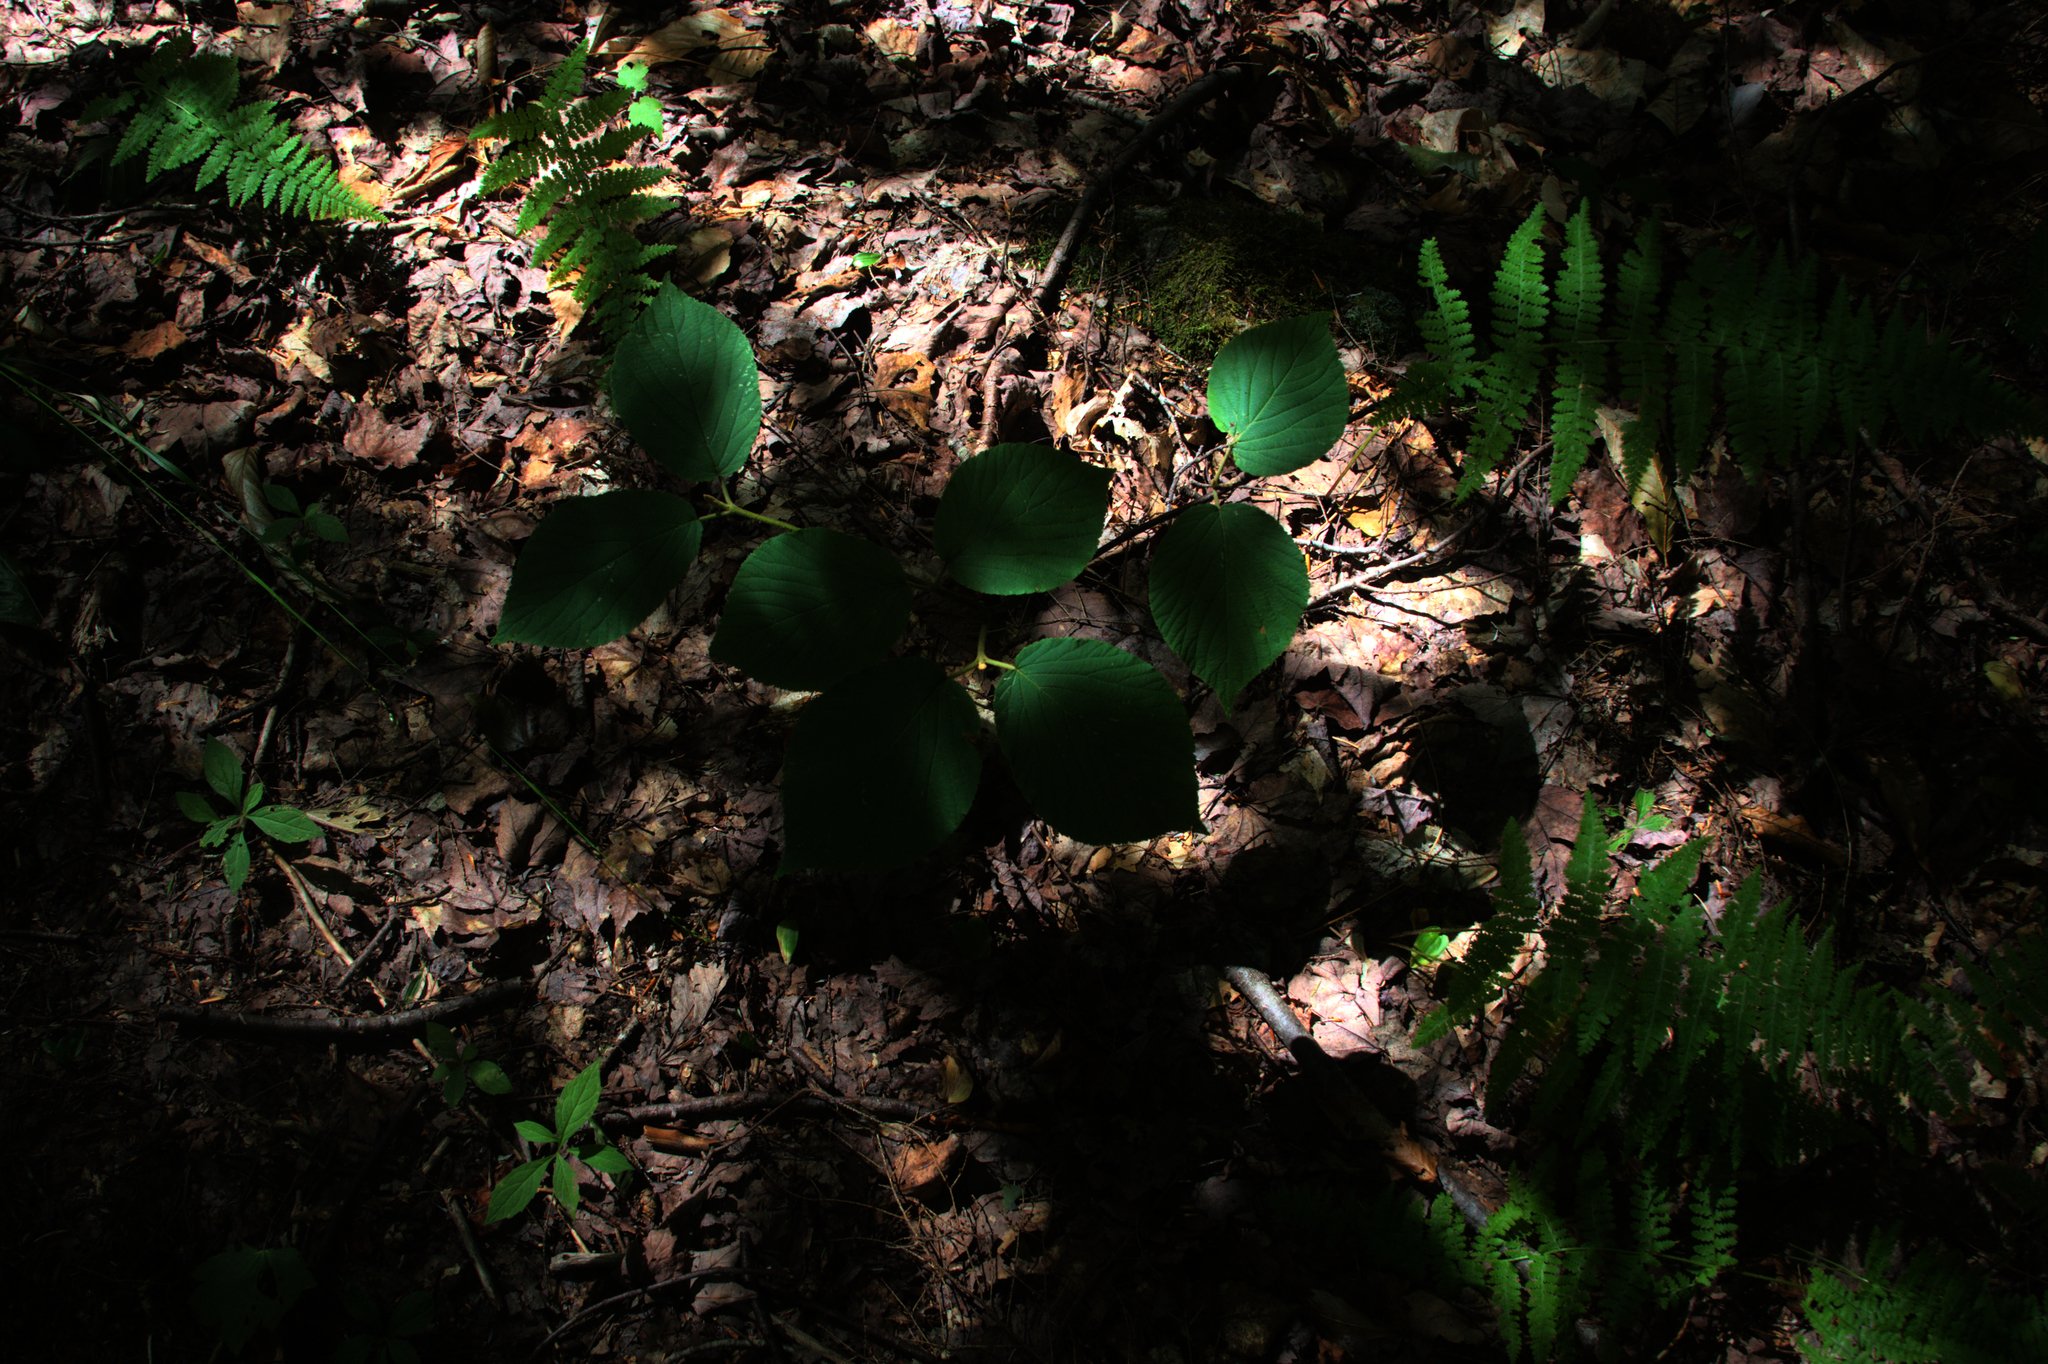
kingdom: Plantae
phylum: Tracheophyta
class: Magnoliopsida
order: Dipsacales
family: Viburnaceae
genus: Viburnum
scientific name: Viburnum lantanoides
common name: Hobblebush
